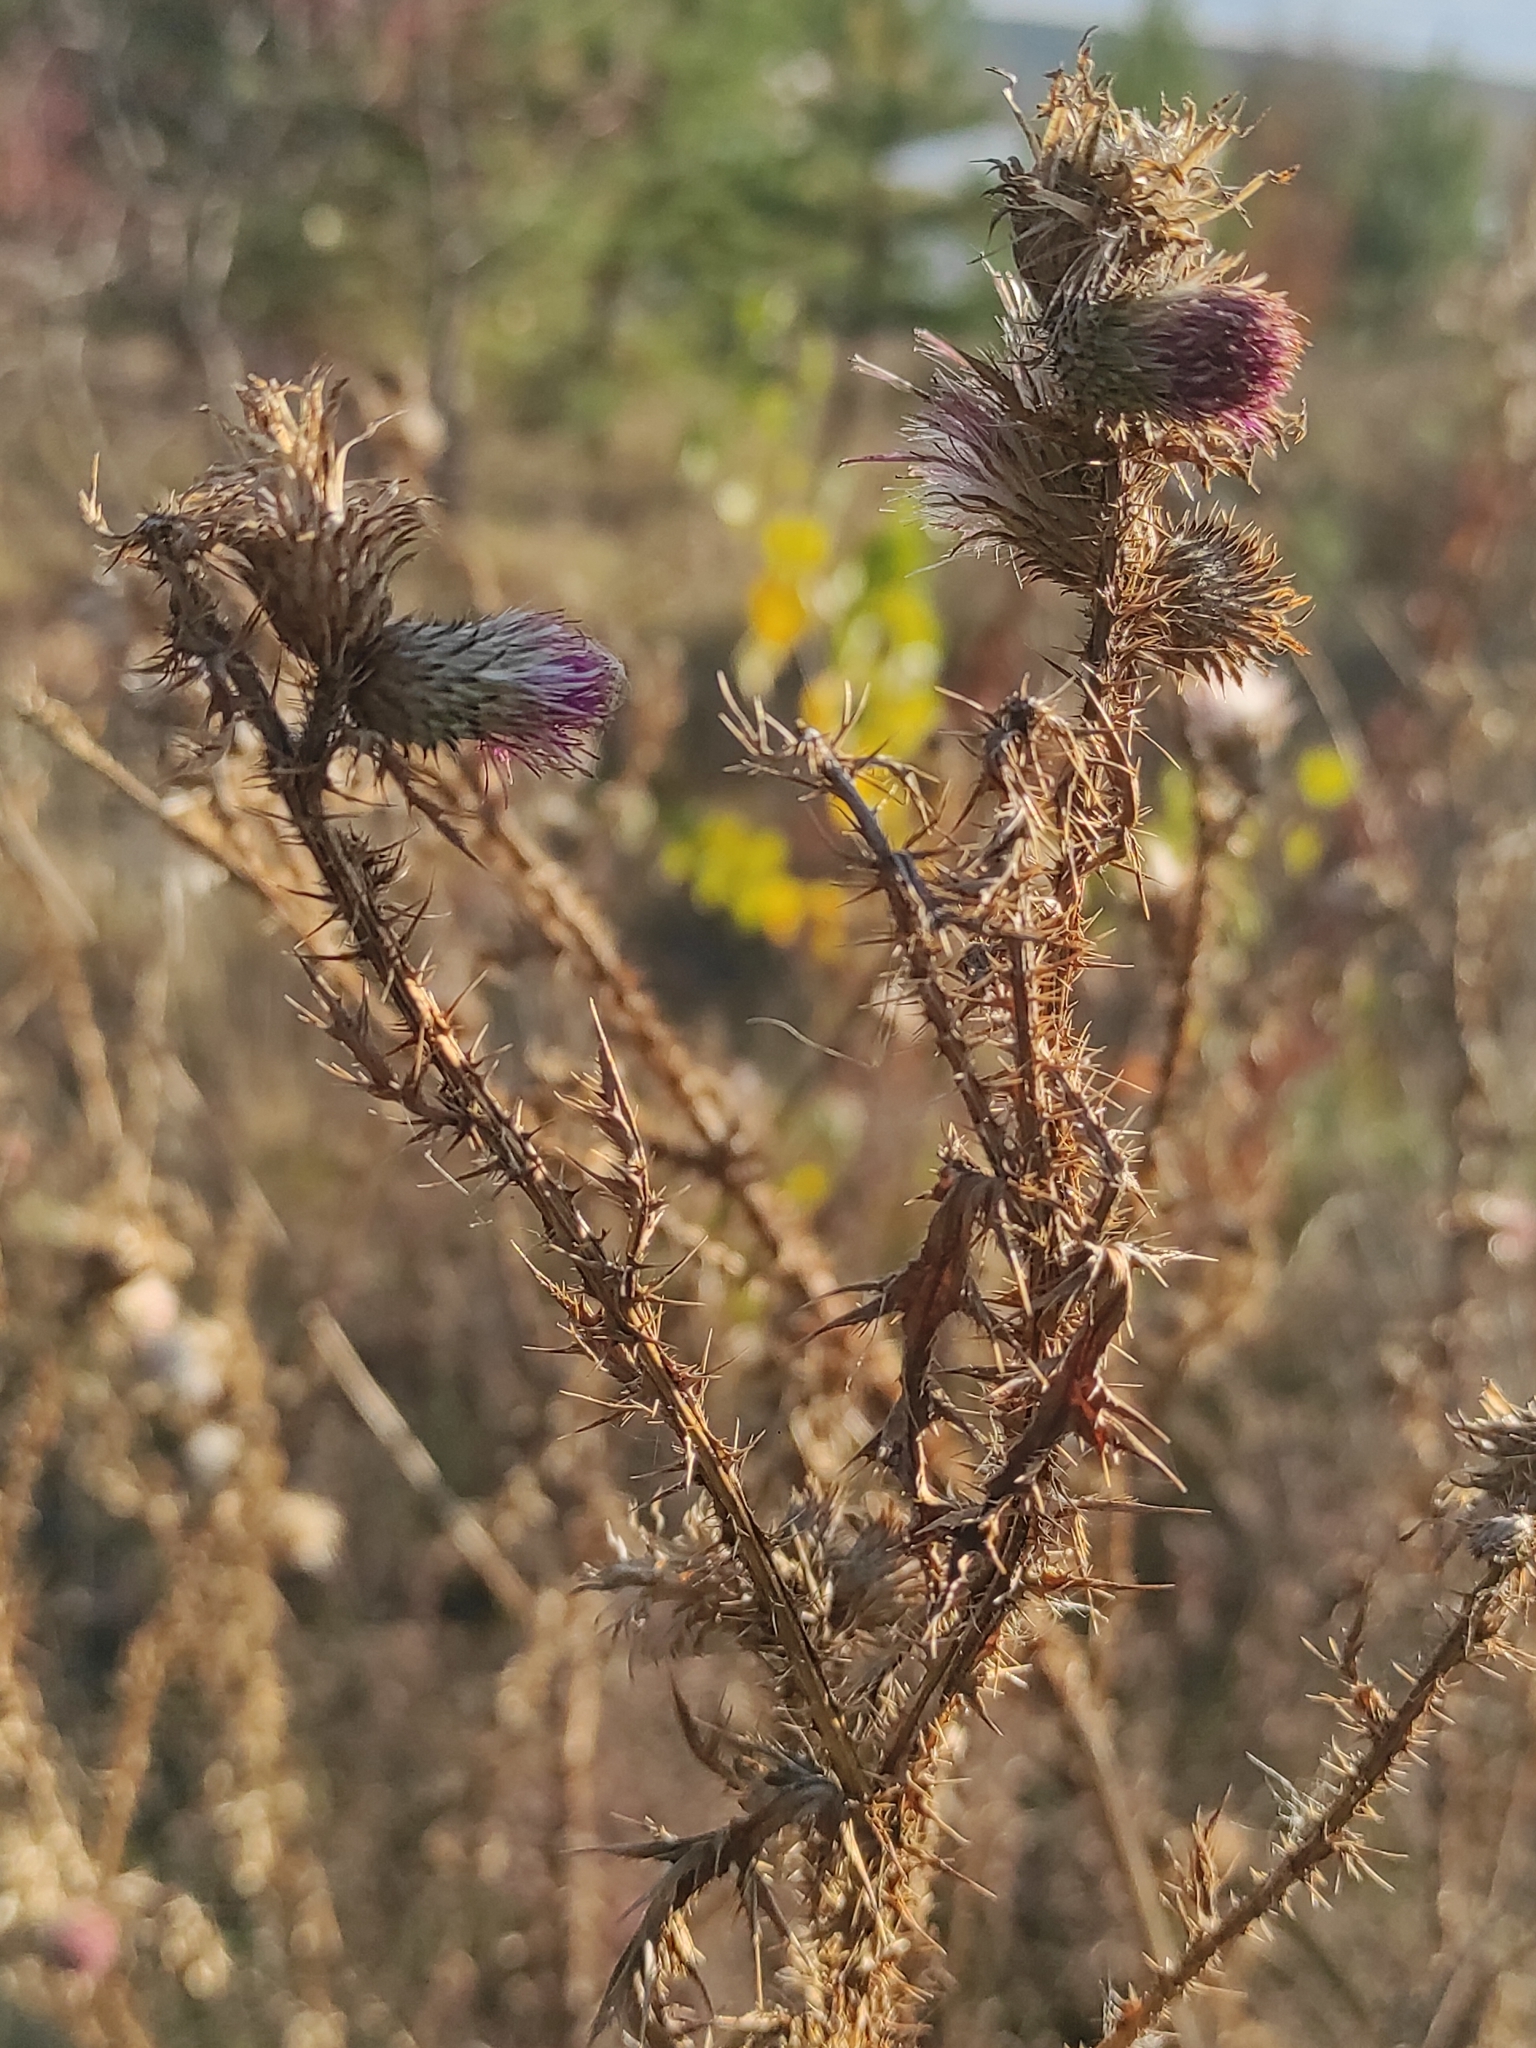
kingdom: Plantae
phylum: Tracheophyta
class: Magnoliopsida
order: Asterales
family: Asteraceae
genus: Carduus
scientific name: Carduus acanthoides
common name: Plumeless thistle
